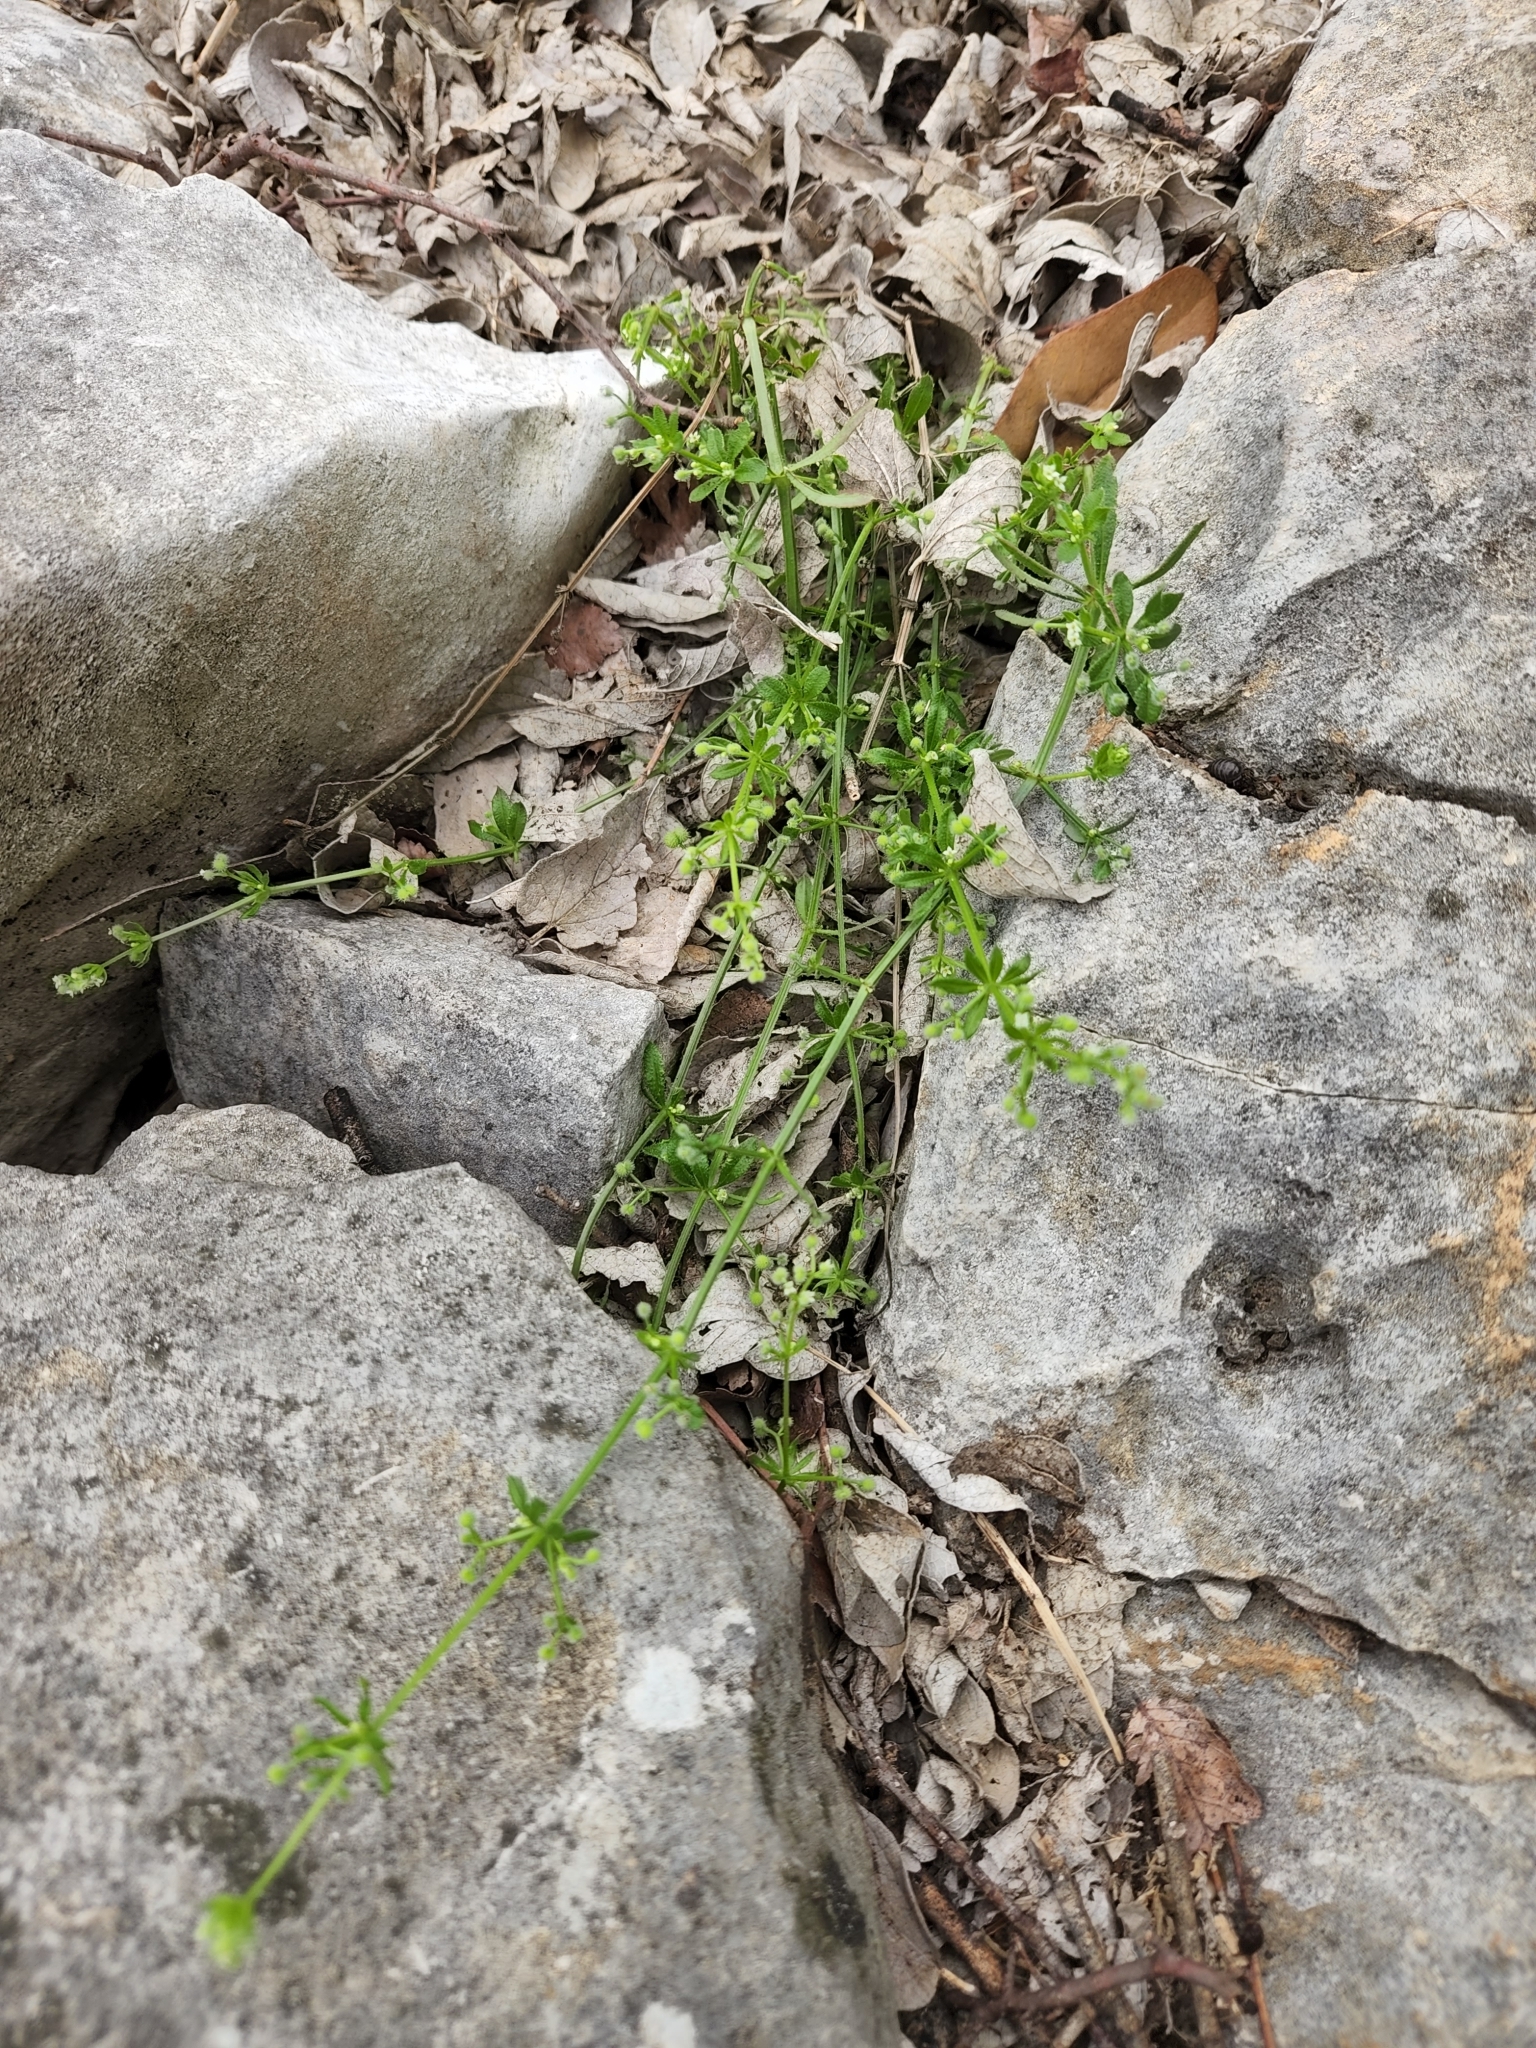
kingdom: Plantae
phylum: Tracheophyta
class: Magnoliopsida
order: Gentianales
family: Rubiaceae
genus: Galium
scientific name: Galium aparine
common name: Cleavers
